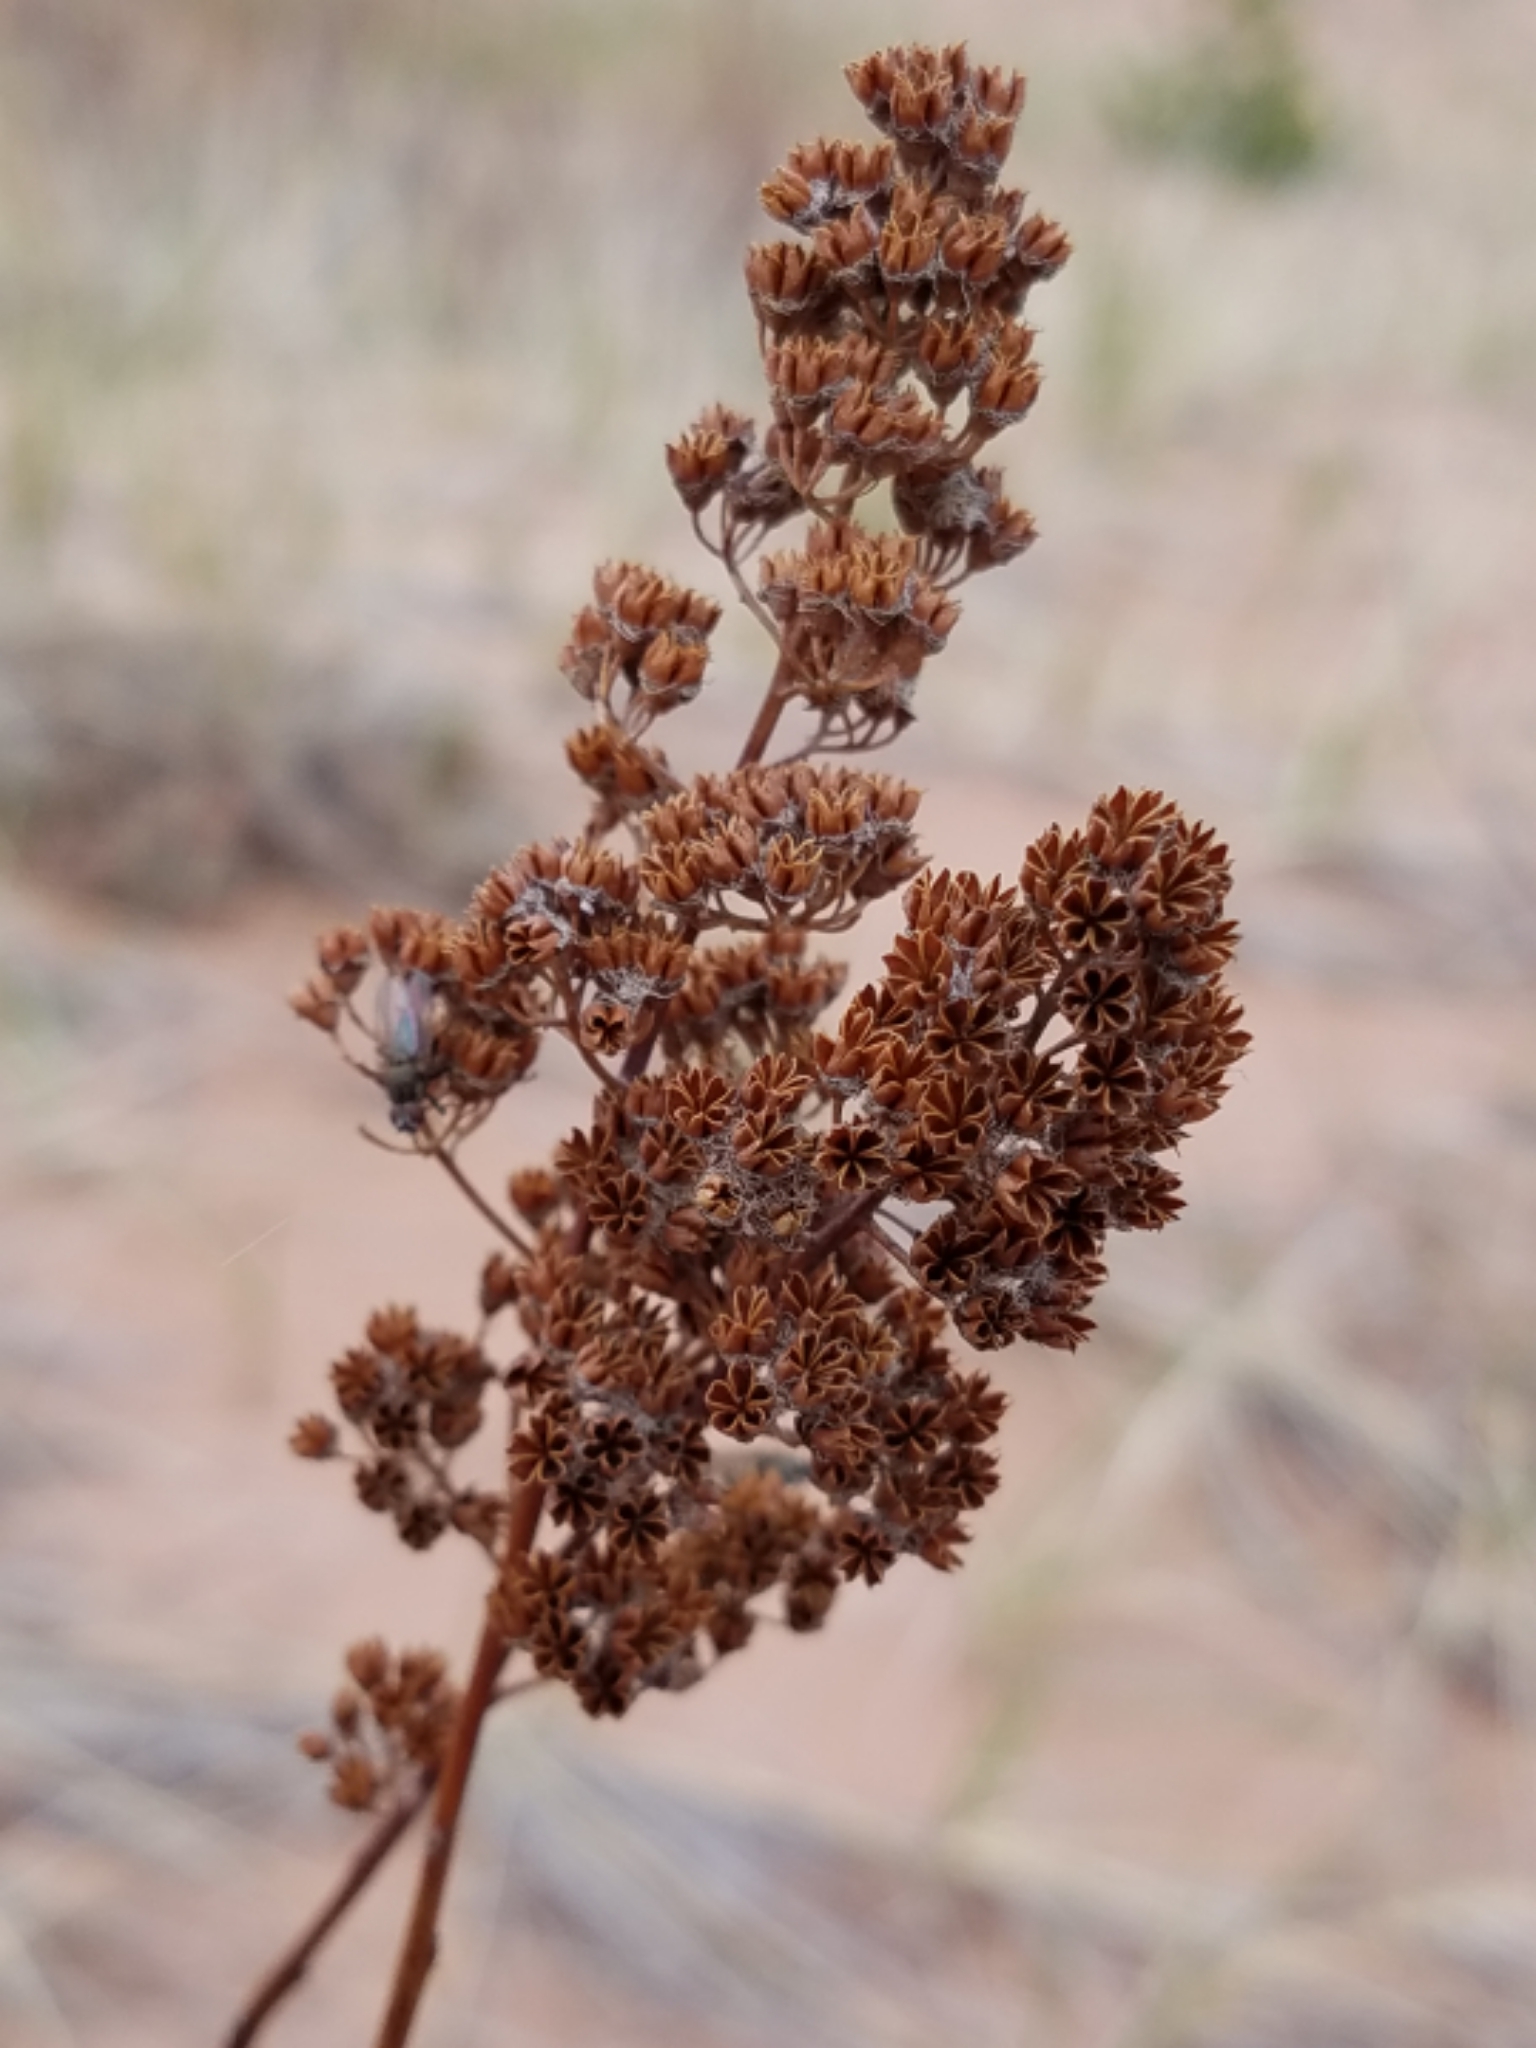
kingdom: Plantae
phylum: Tracheophyta
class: Magnoliopsida
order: Rosales
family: Rosaceae
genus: Spiraea
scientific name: Spiraea alba
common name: Pale bridewort
